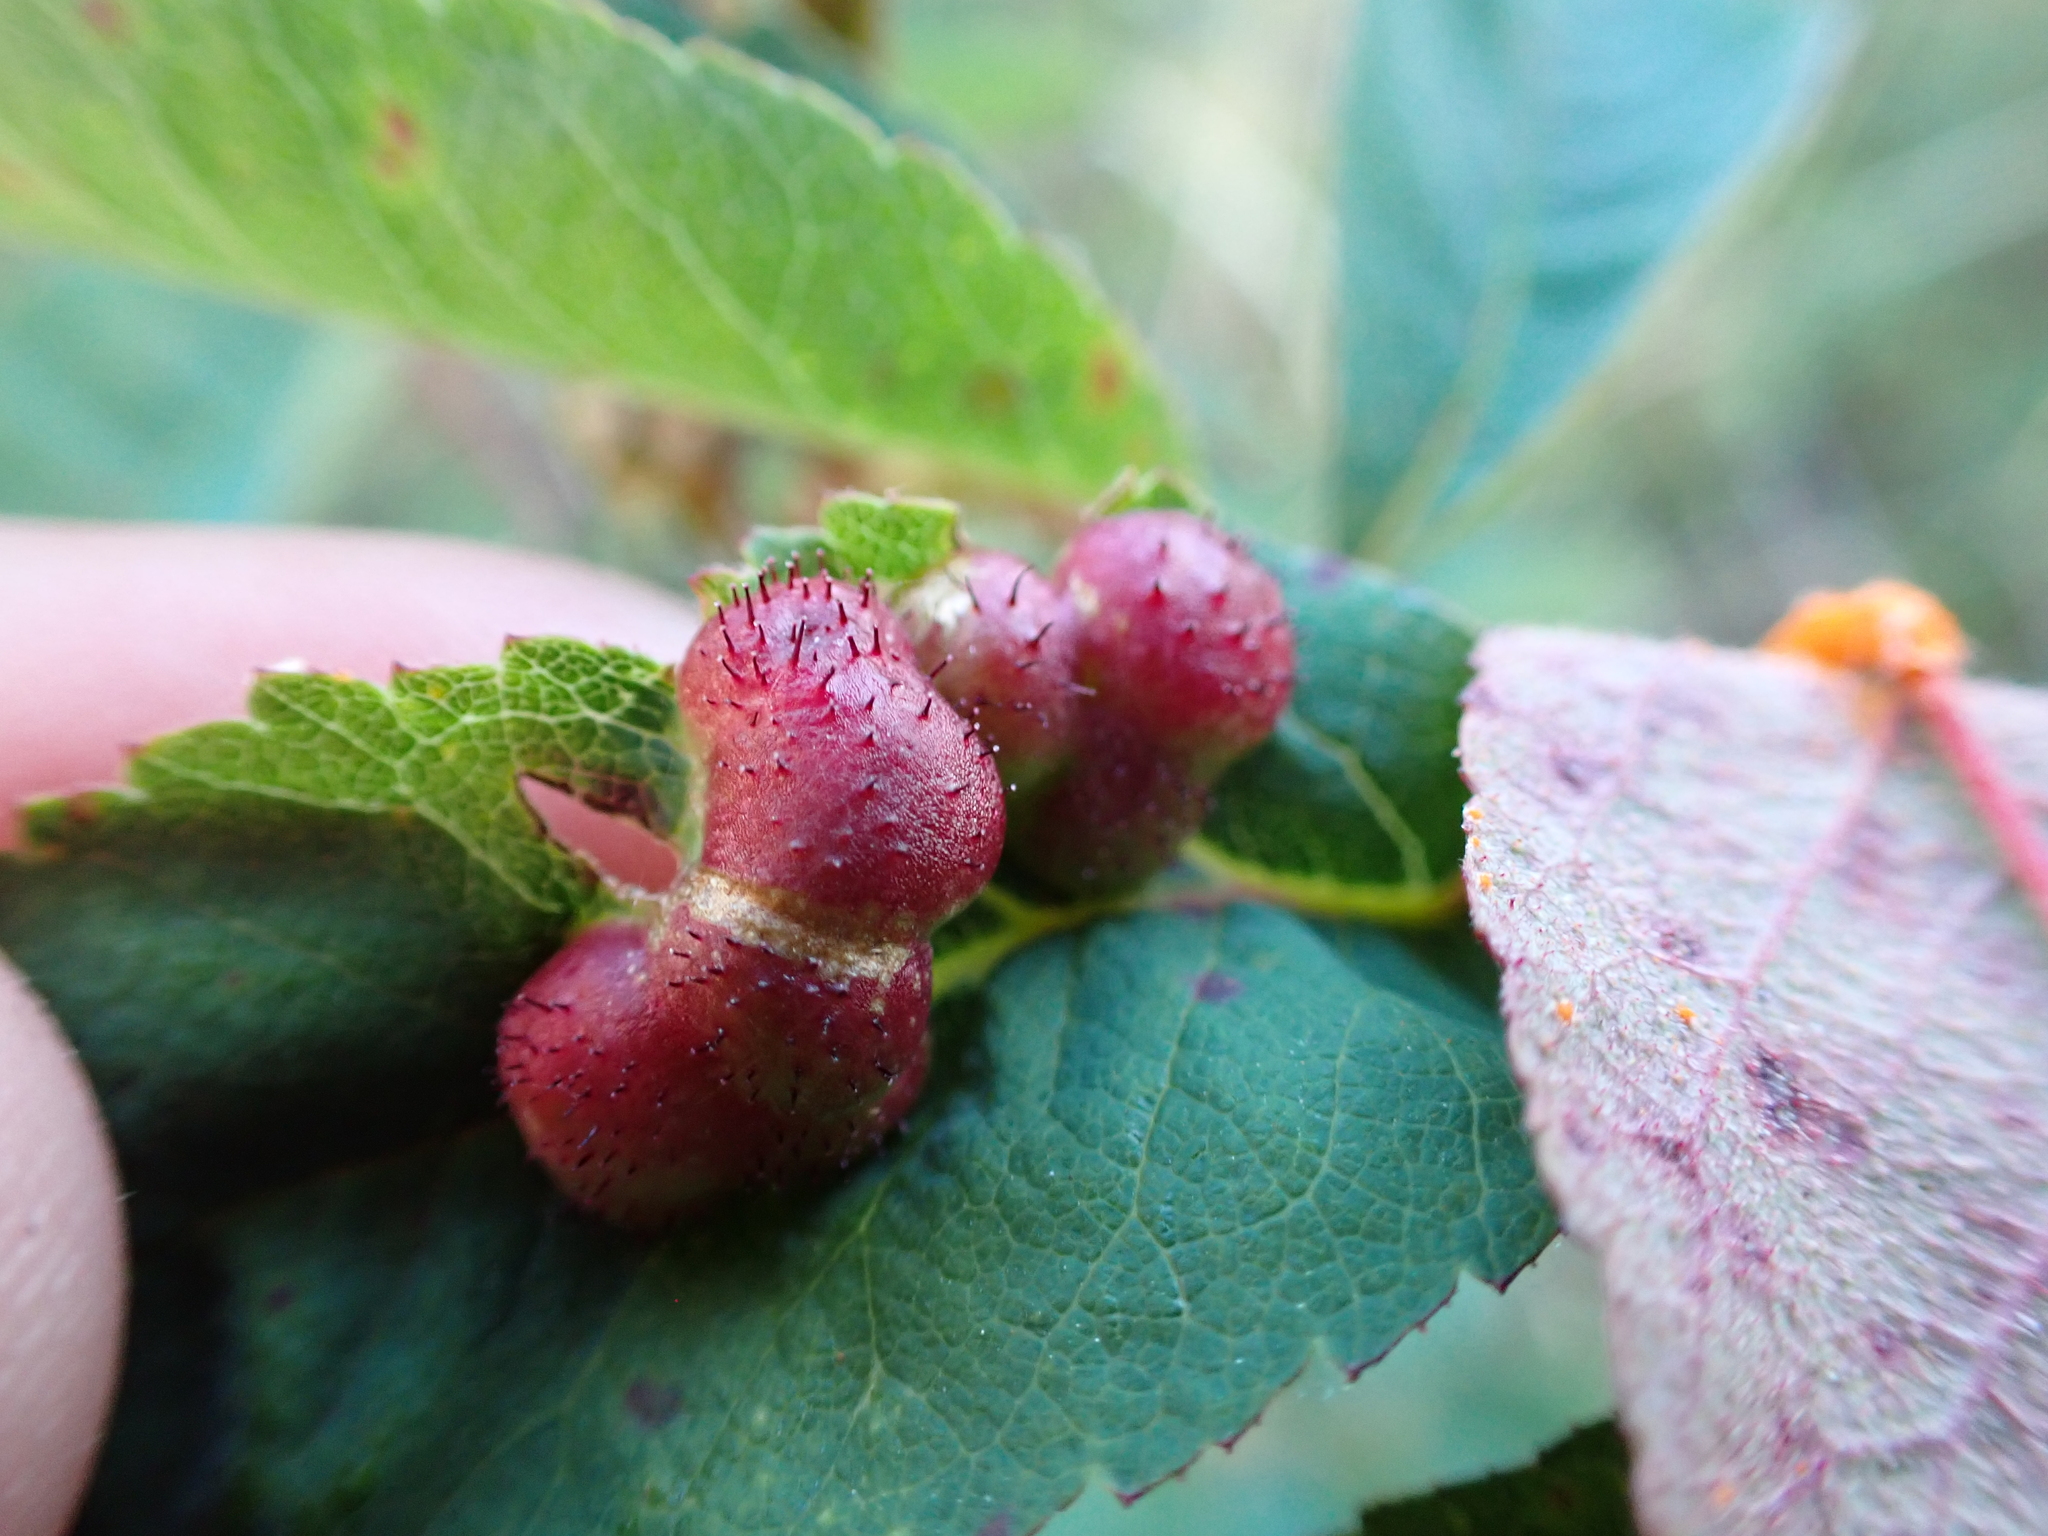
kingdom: Animalia
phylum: Arthropoda
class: Insecta
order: Hymenoptera
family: Cynipidae
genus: Diplolepis
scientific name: Diplolepis polita
